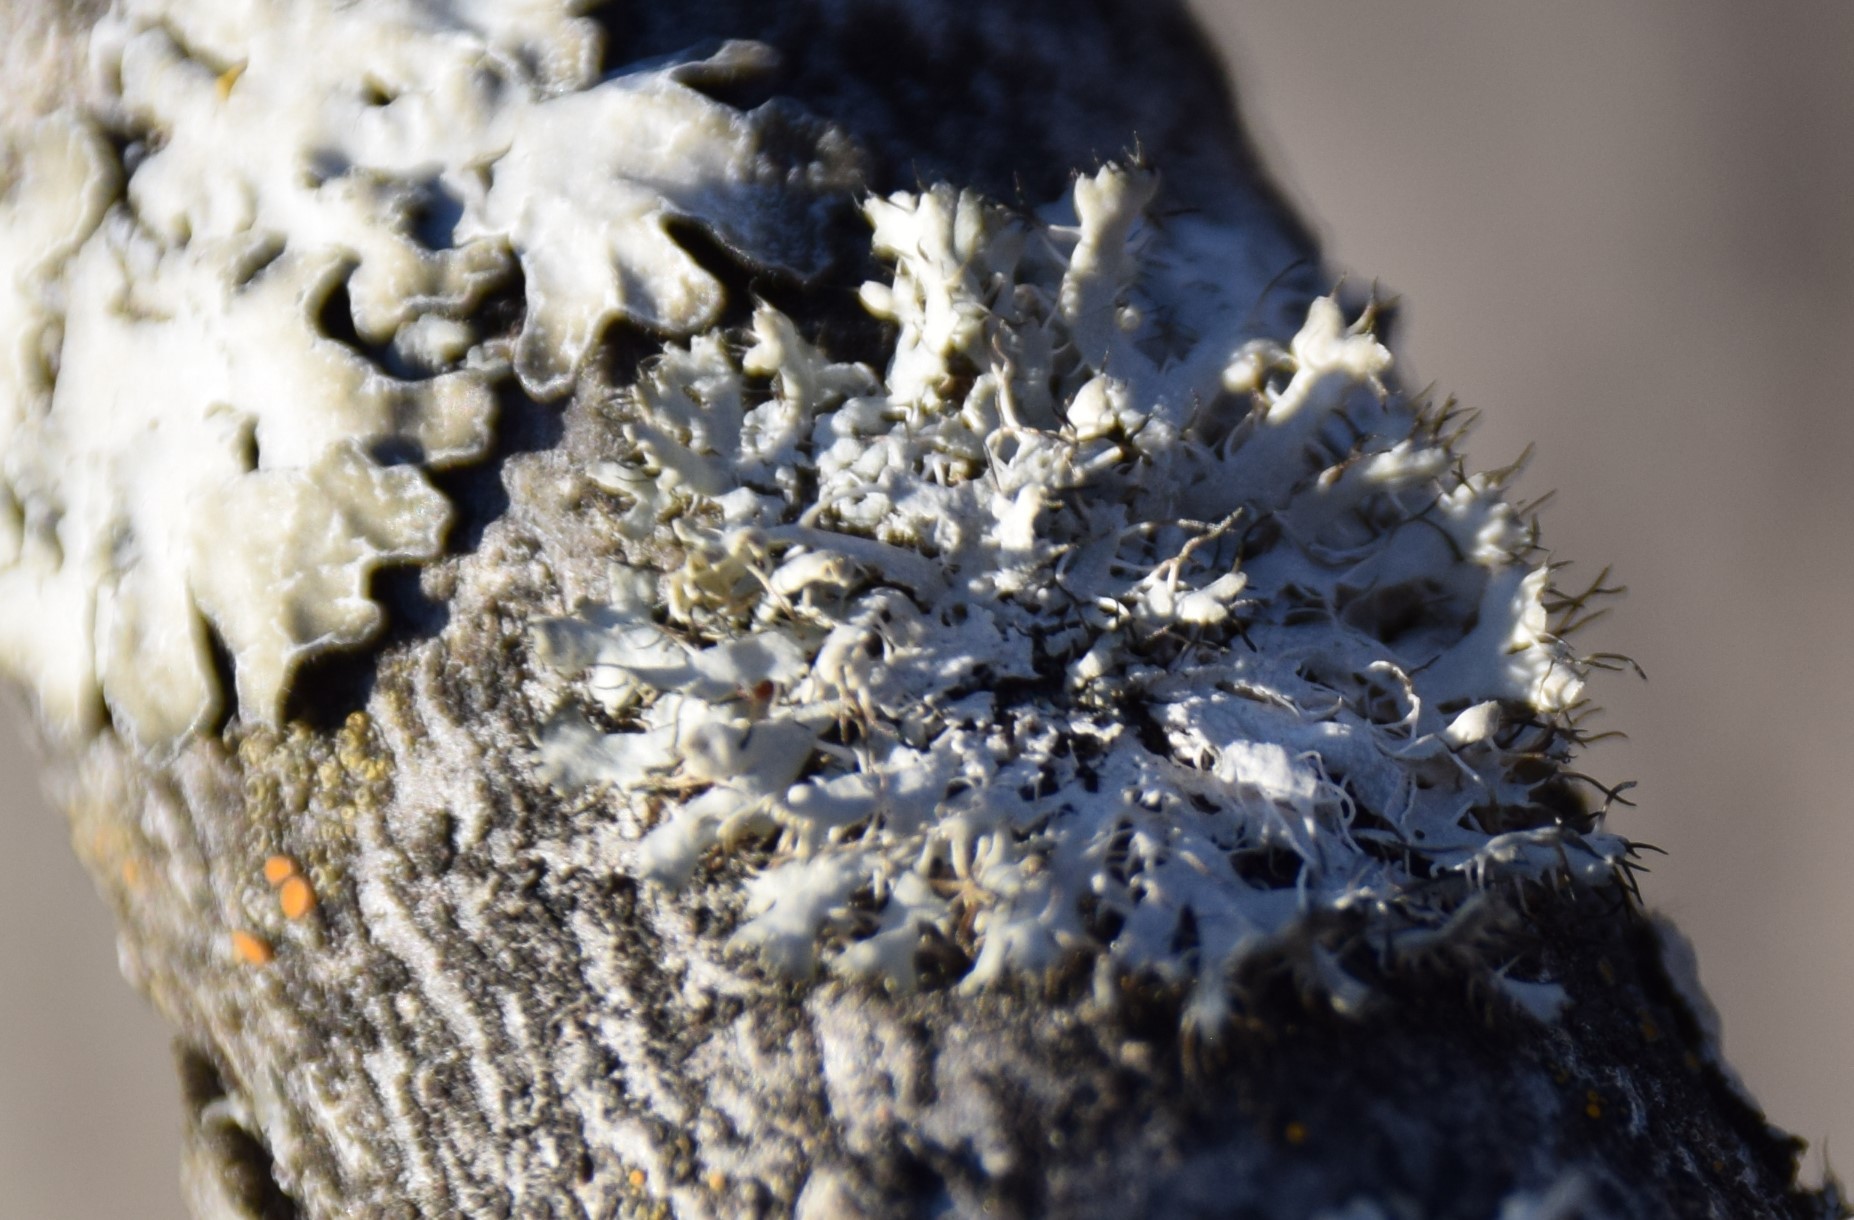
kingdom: Fungi
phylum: Ascomycota
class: Lecanoromycetes
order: Caliciales
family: Physciaceae
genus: Physcia
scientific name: Physcia adscendens
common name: Hooded rosette lichen
